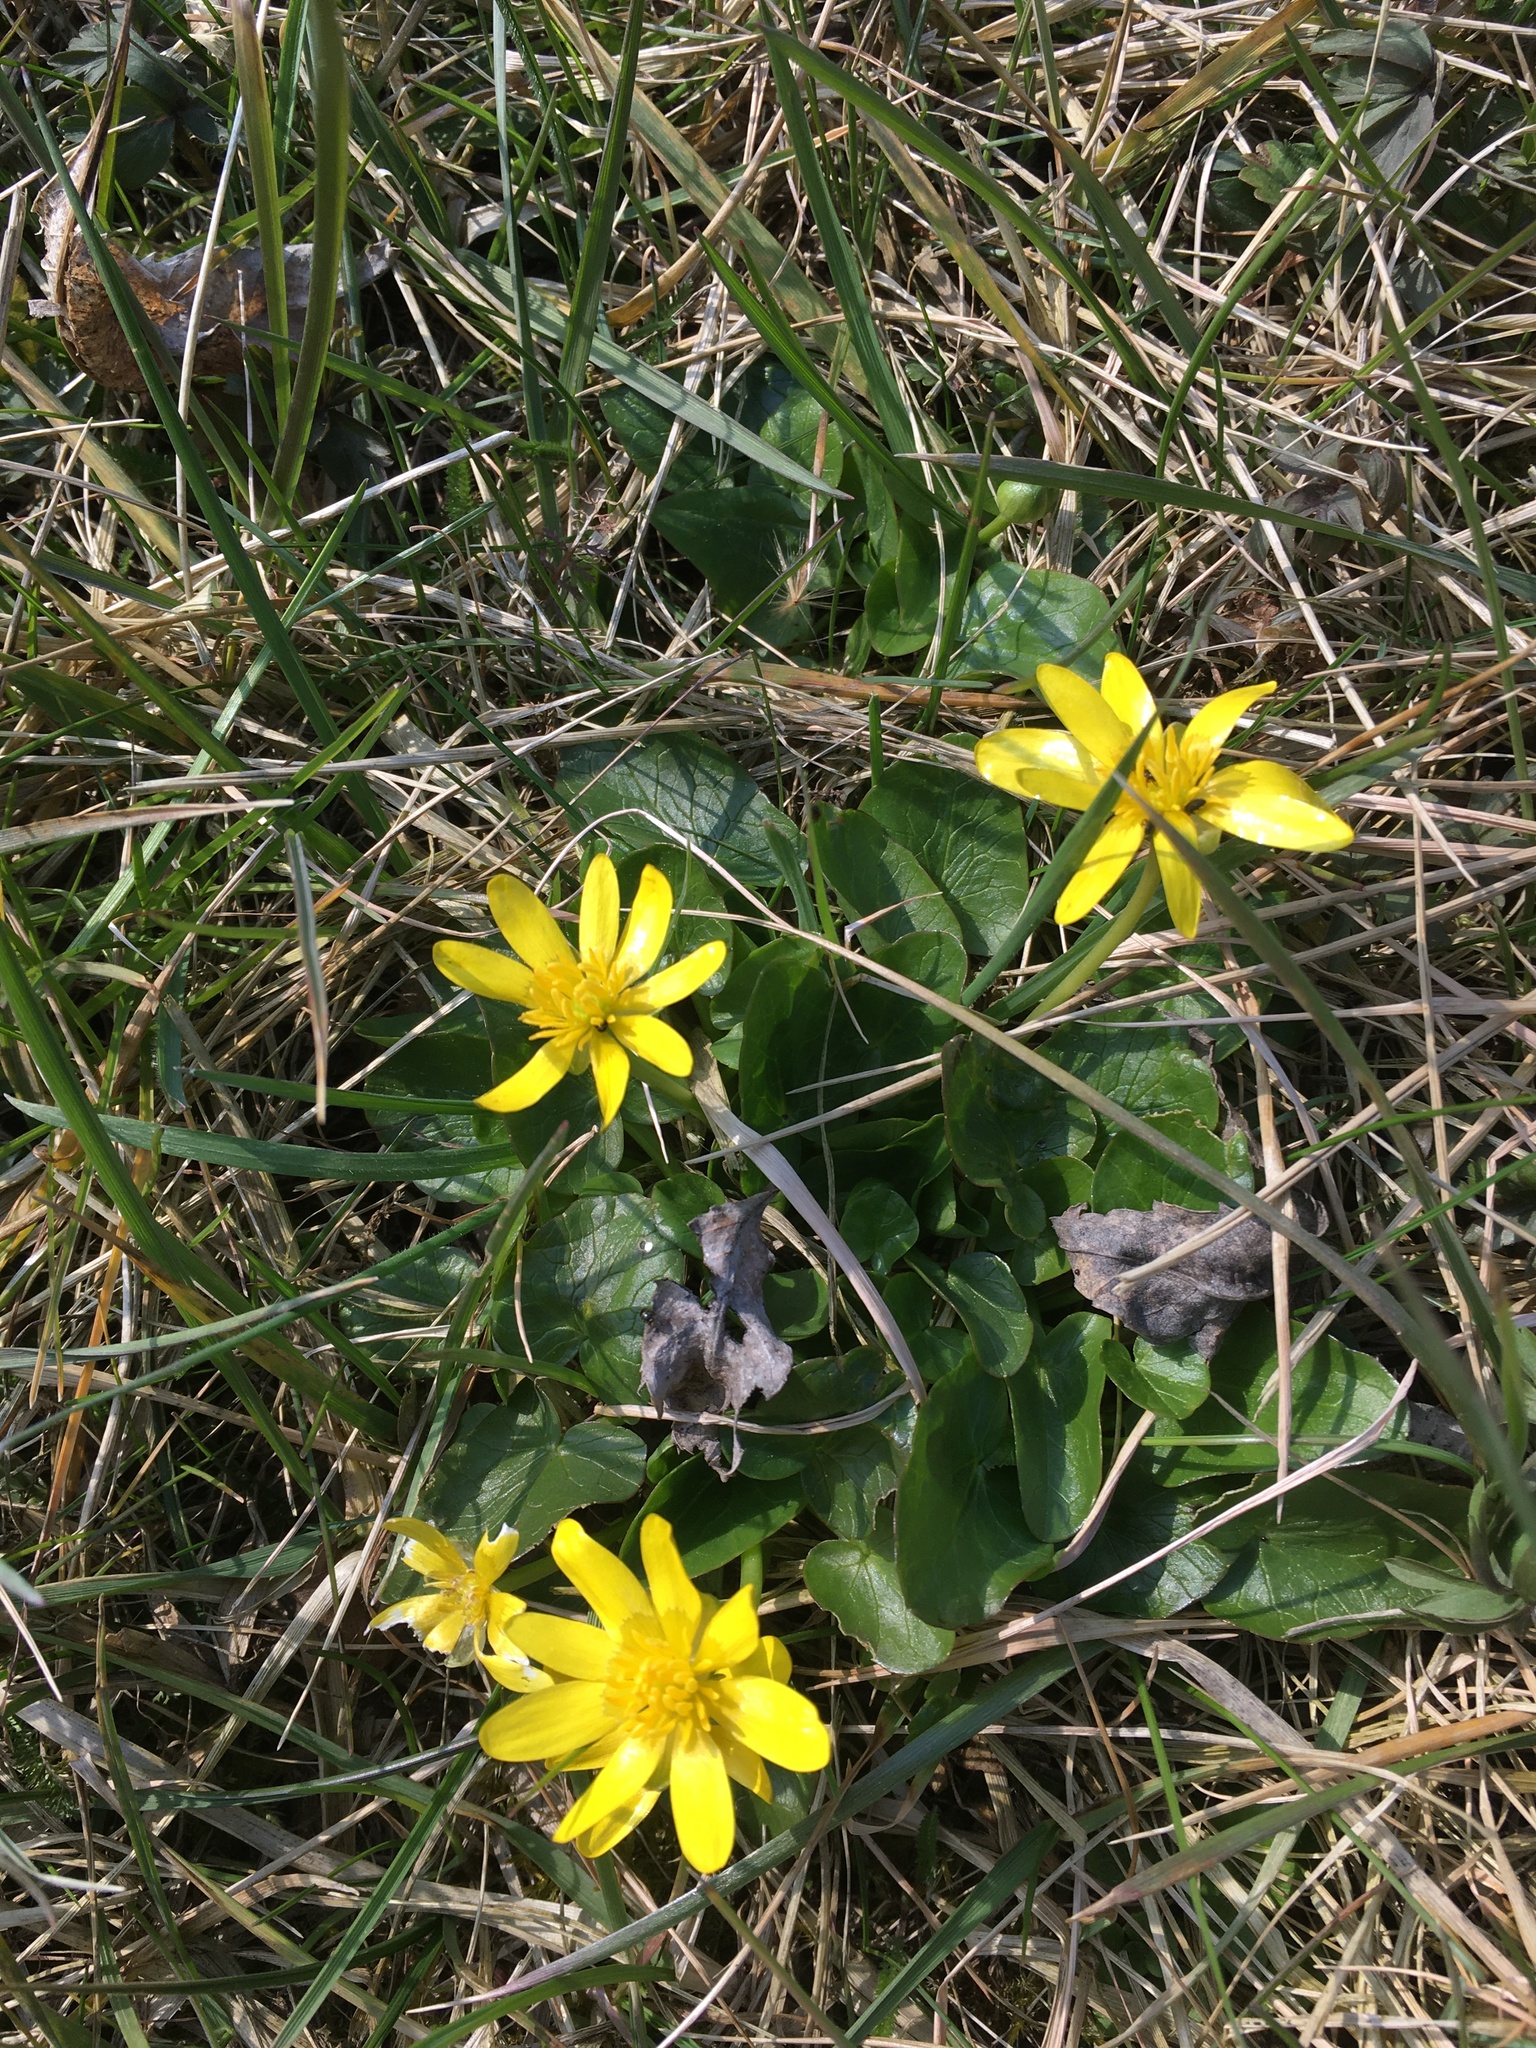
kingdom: Plantae
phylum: Tracheophyta
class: Magnoliopsida
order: Ranunculales
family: Ranunculaceae
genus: Ficaria
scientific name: Ficaria verna
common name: Lesser celandine
